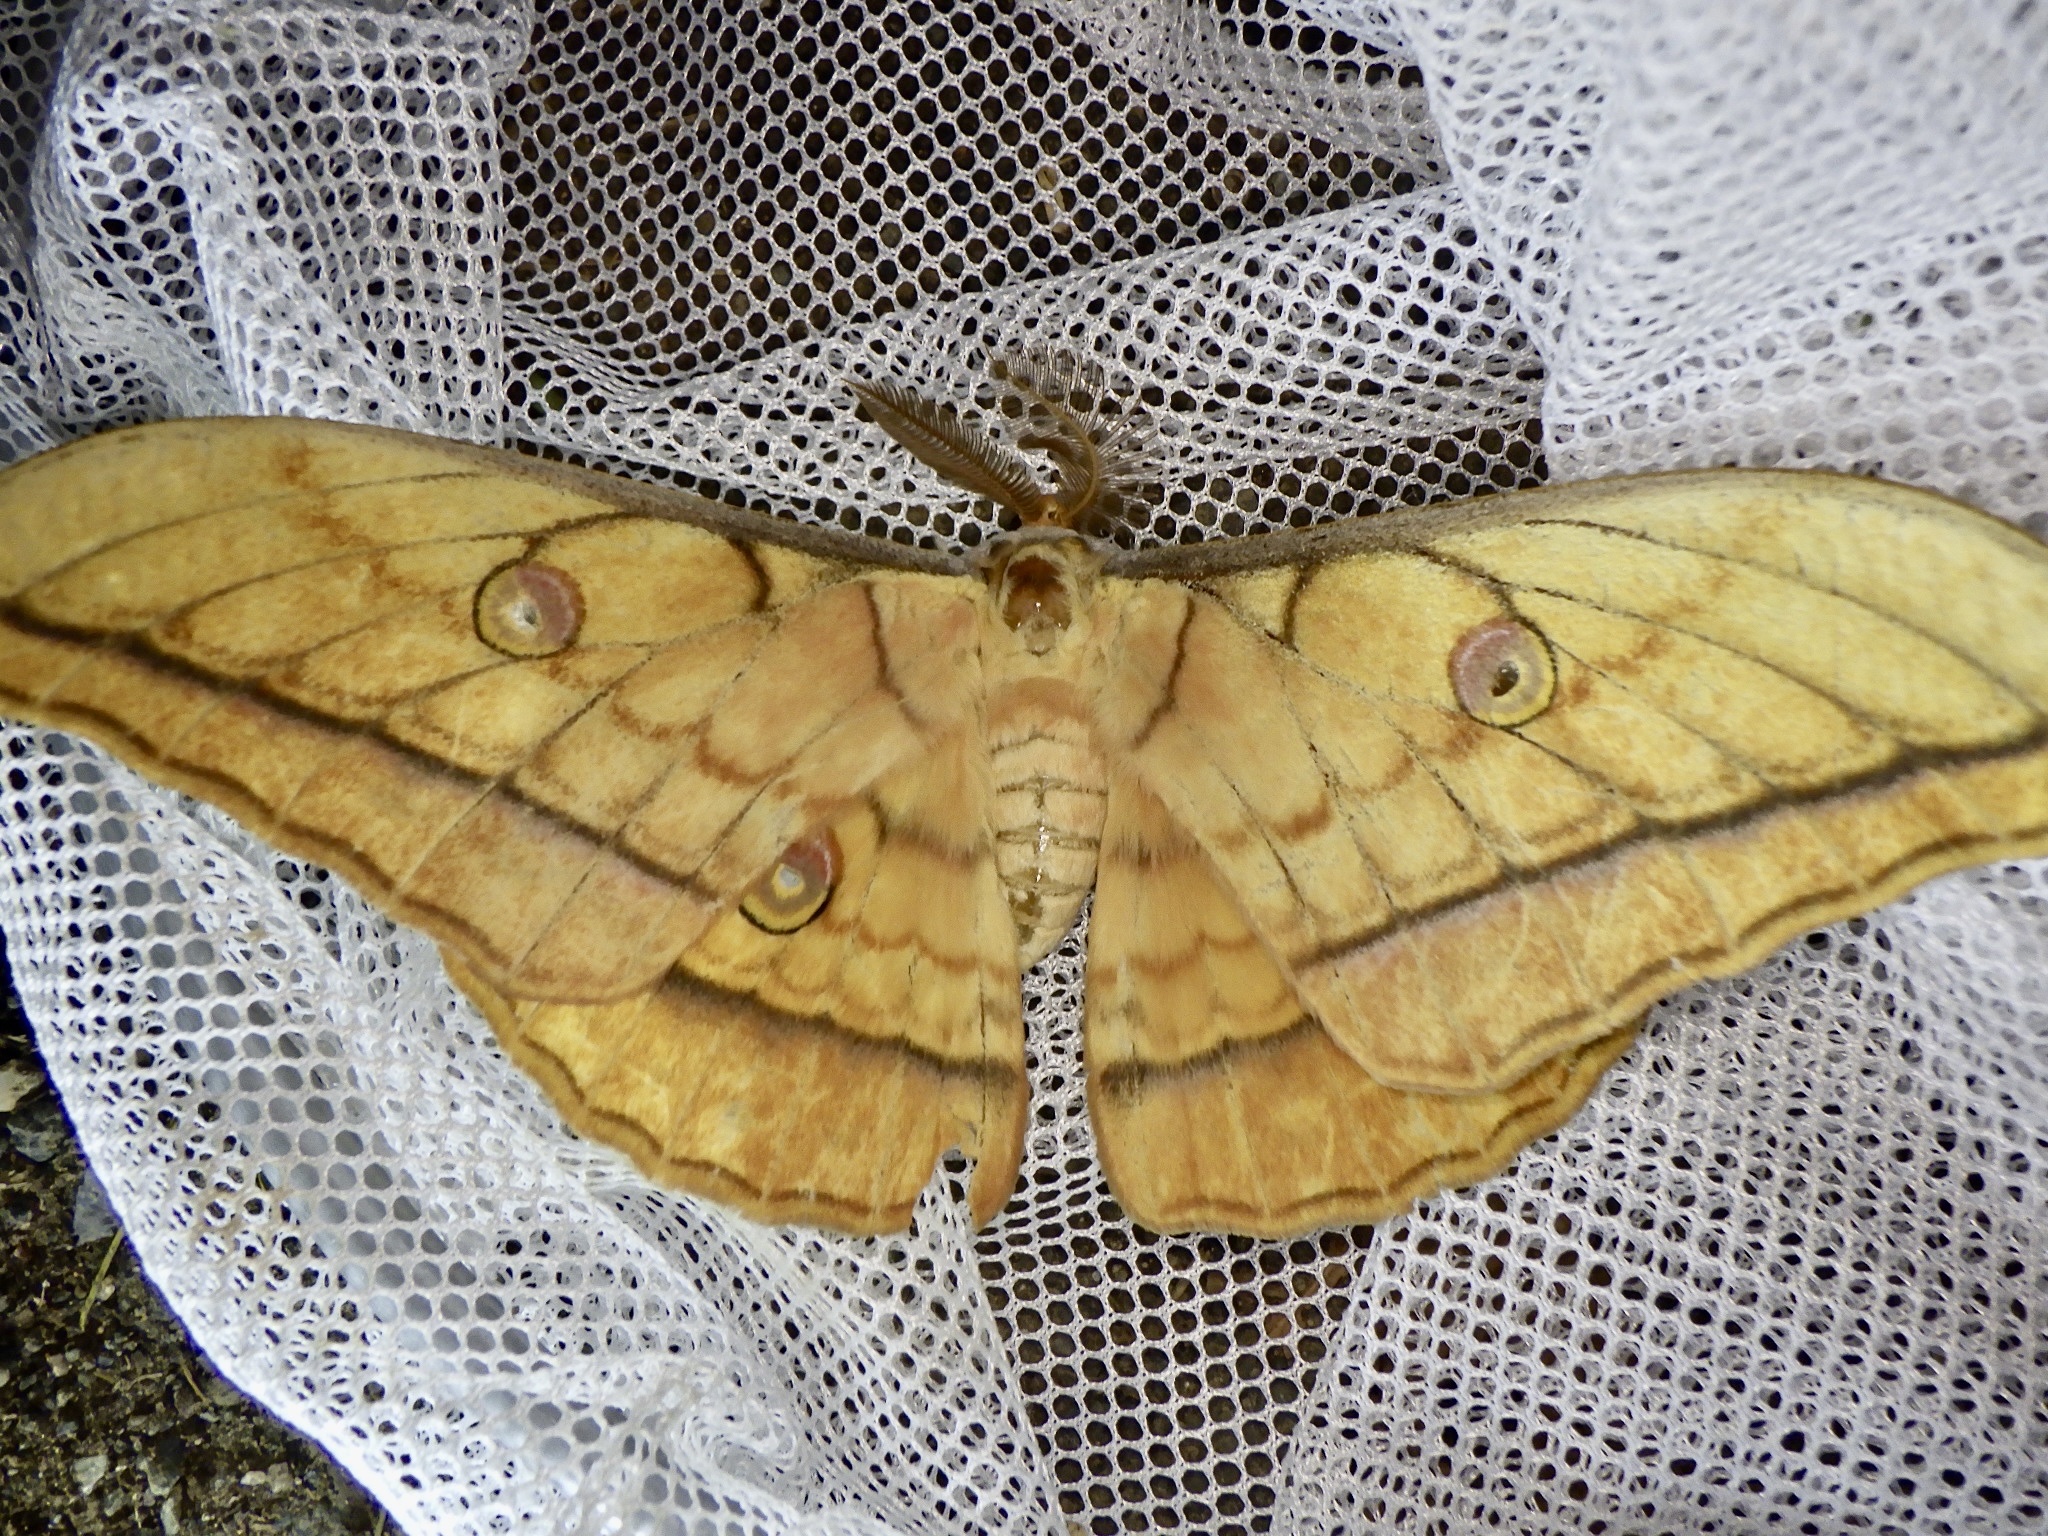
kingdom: Animalia
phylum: Arthropoda
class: Insecta
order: Lepidoptera
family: Saturniidae
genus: Antheraea
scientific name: Antheraea yamamai
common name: Japanese oak silk moth
